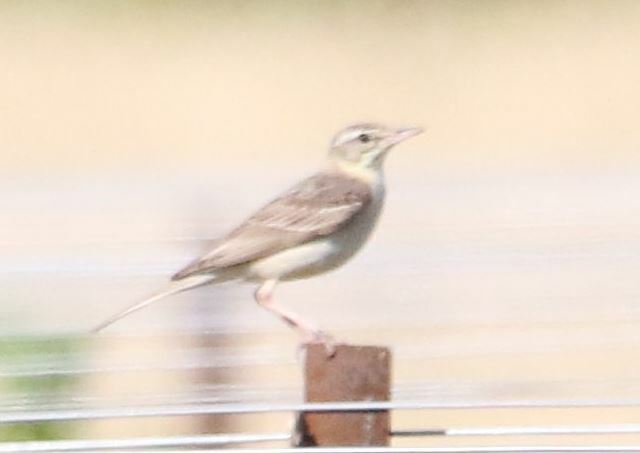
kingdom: Animalia
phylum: Chordata
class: Aves
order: Passeriformes
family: Motacillidae
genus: Anthus
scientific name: Anthus campestris
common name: Tawny pipit
